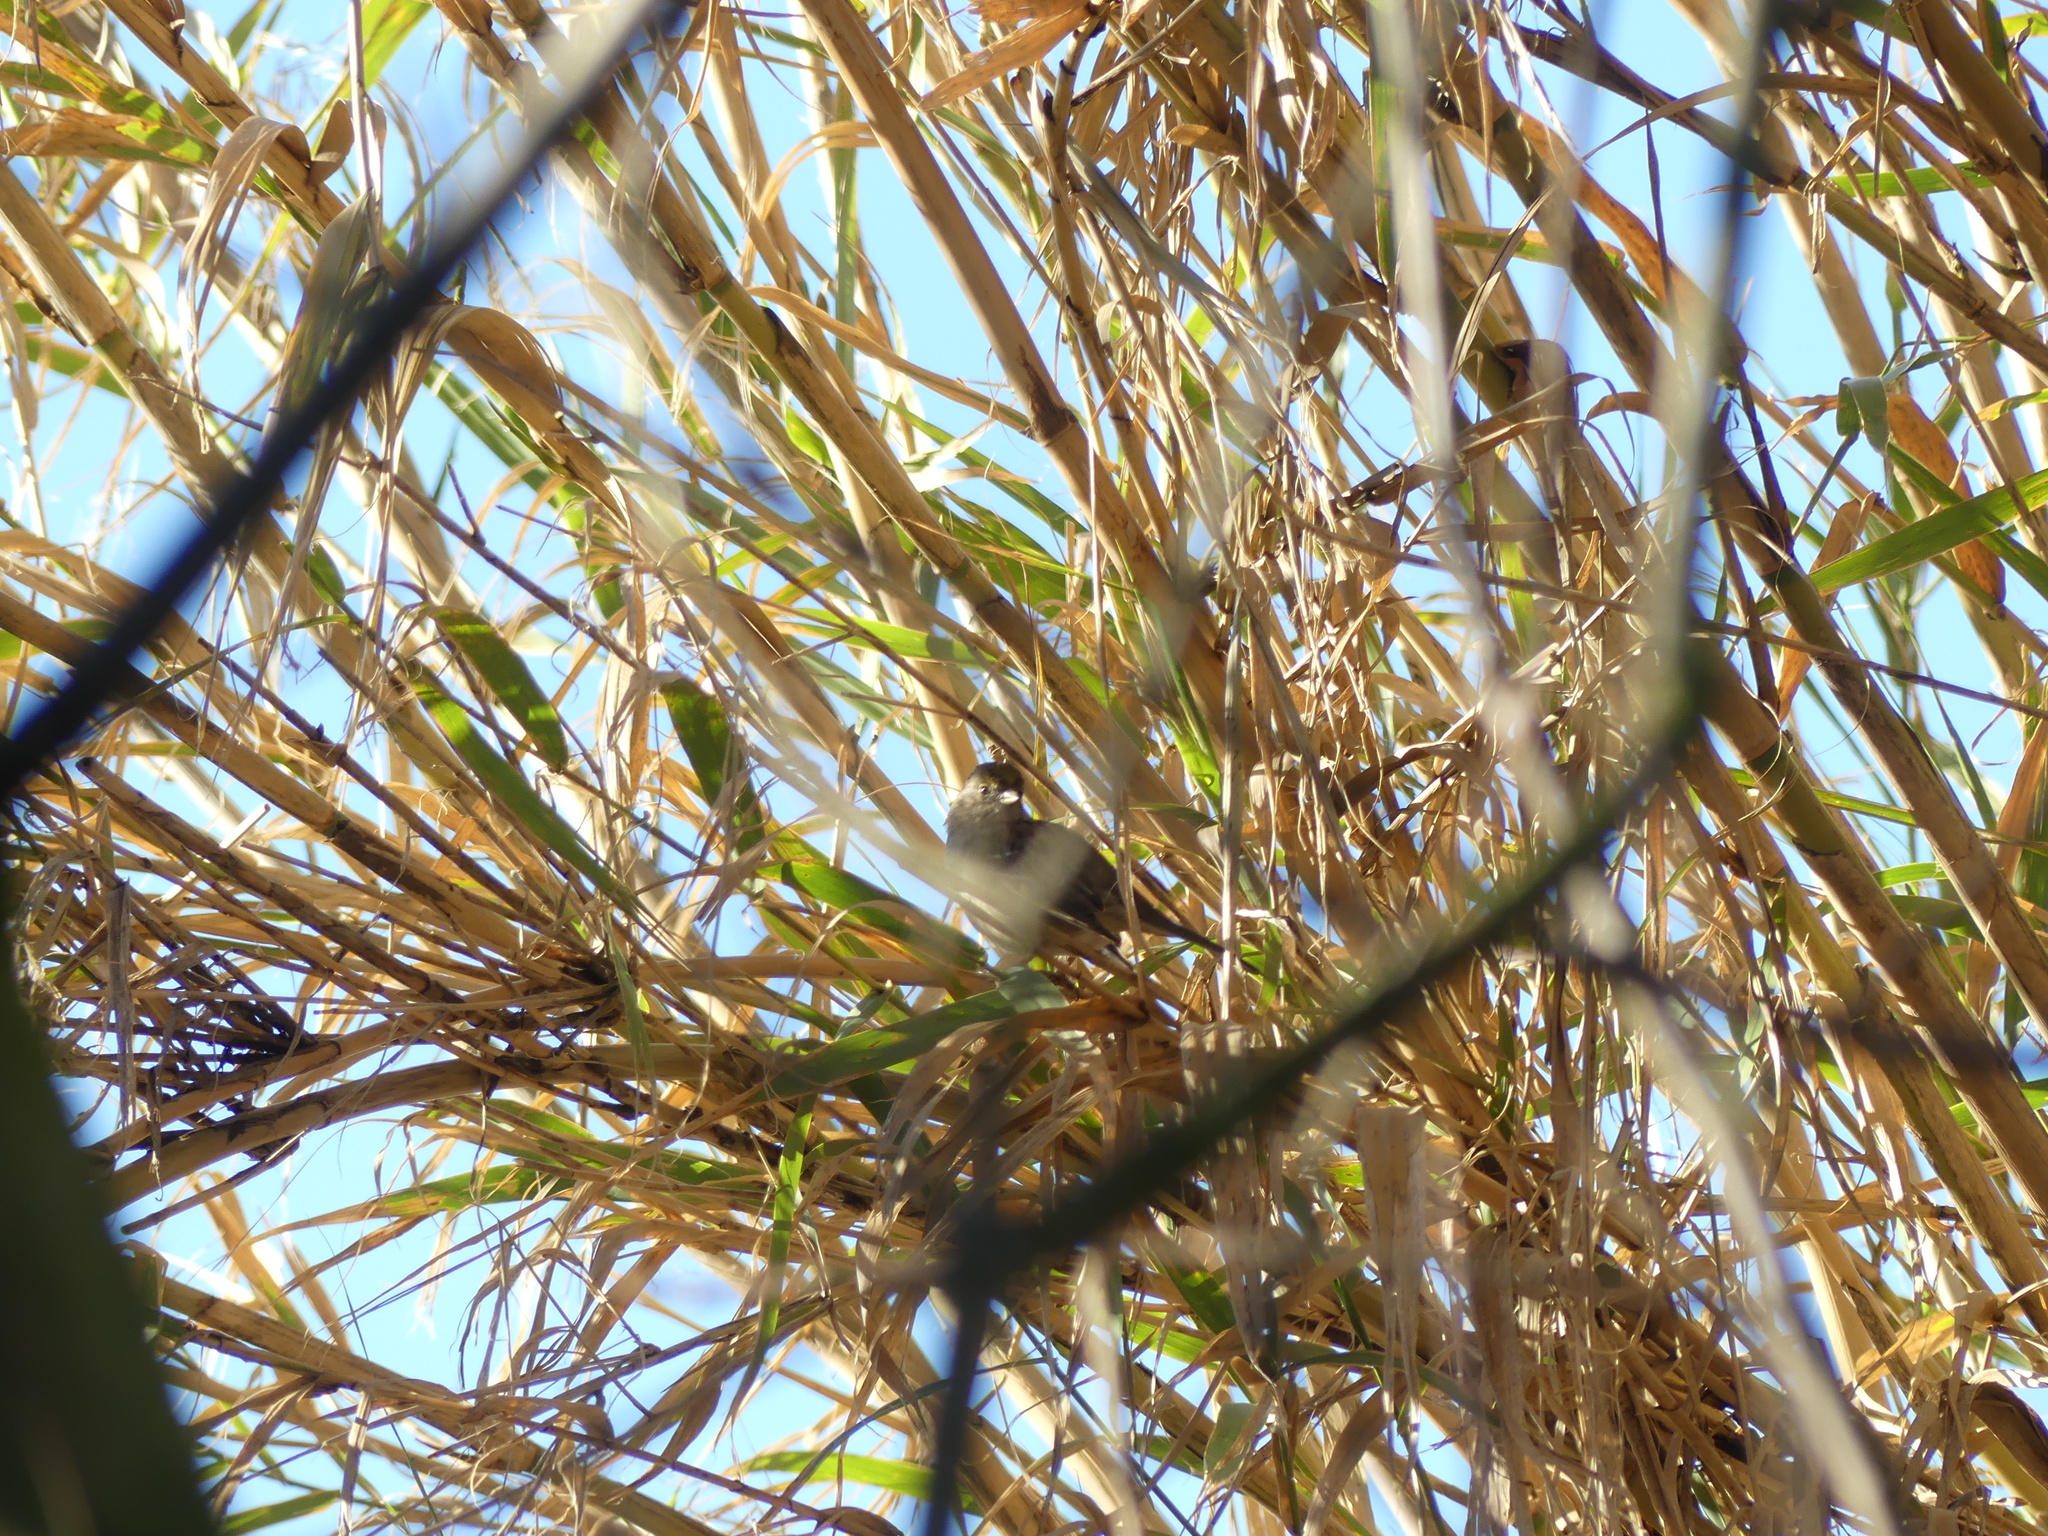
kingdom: Animalia
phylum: Chordata
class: Aves
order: Passeriformes
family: Passerellidae
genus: Melozone
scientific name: Melozone crissalis
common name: California towhee
